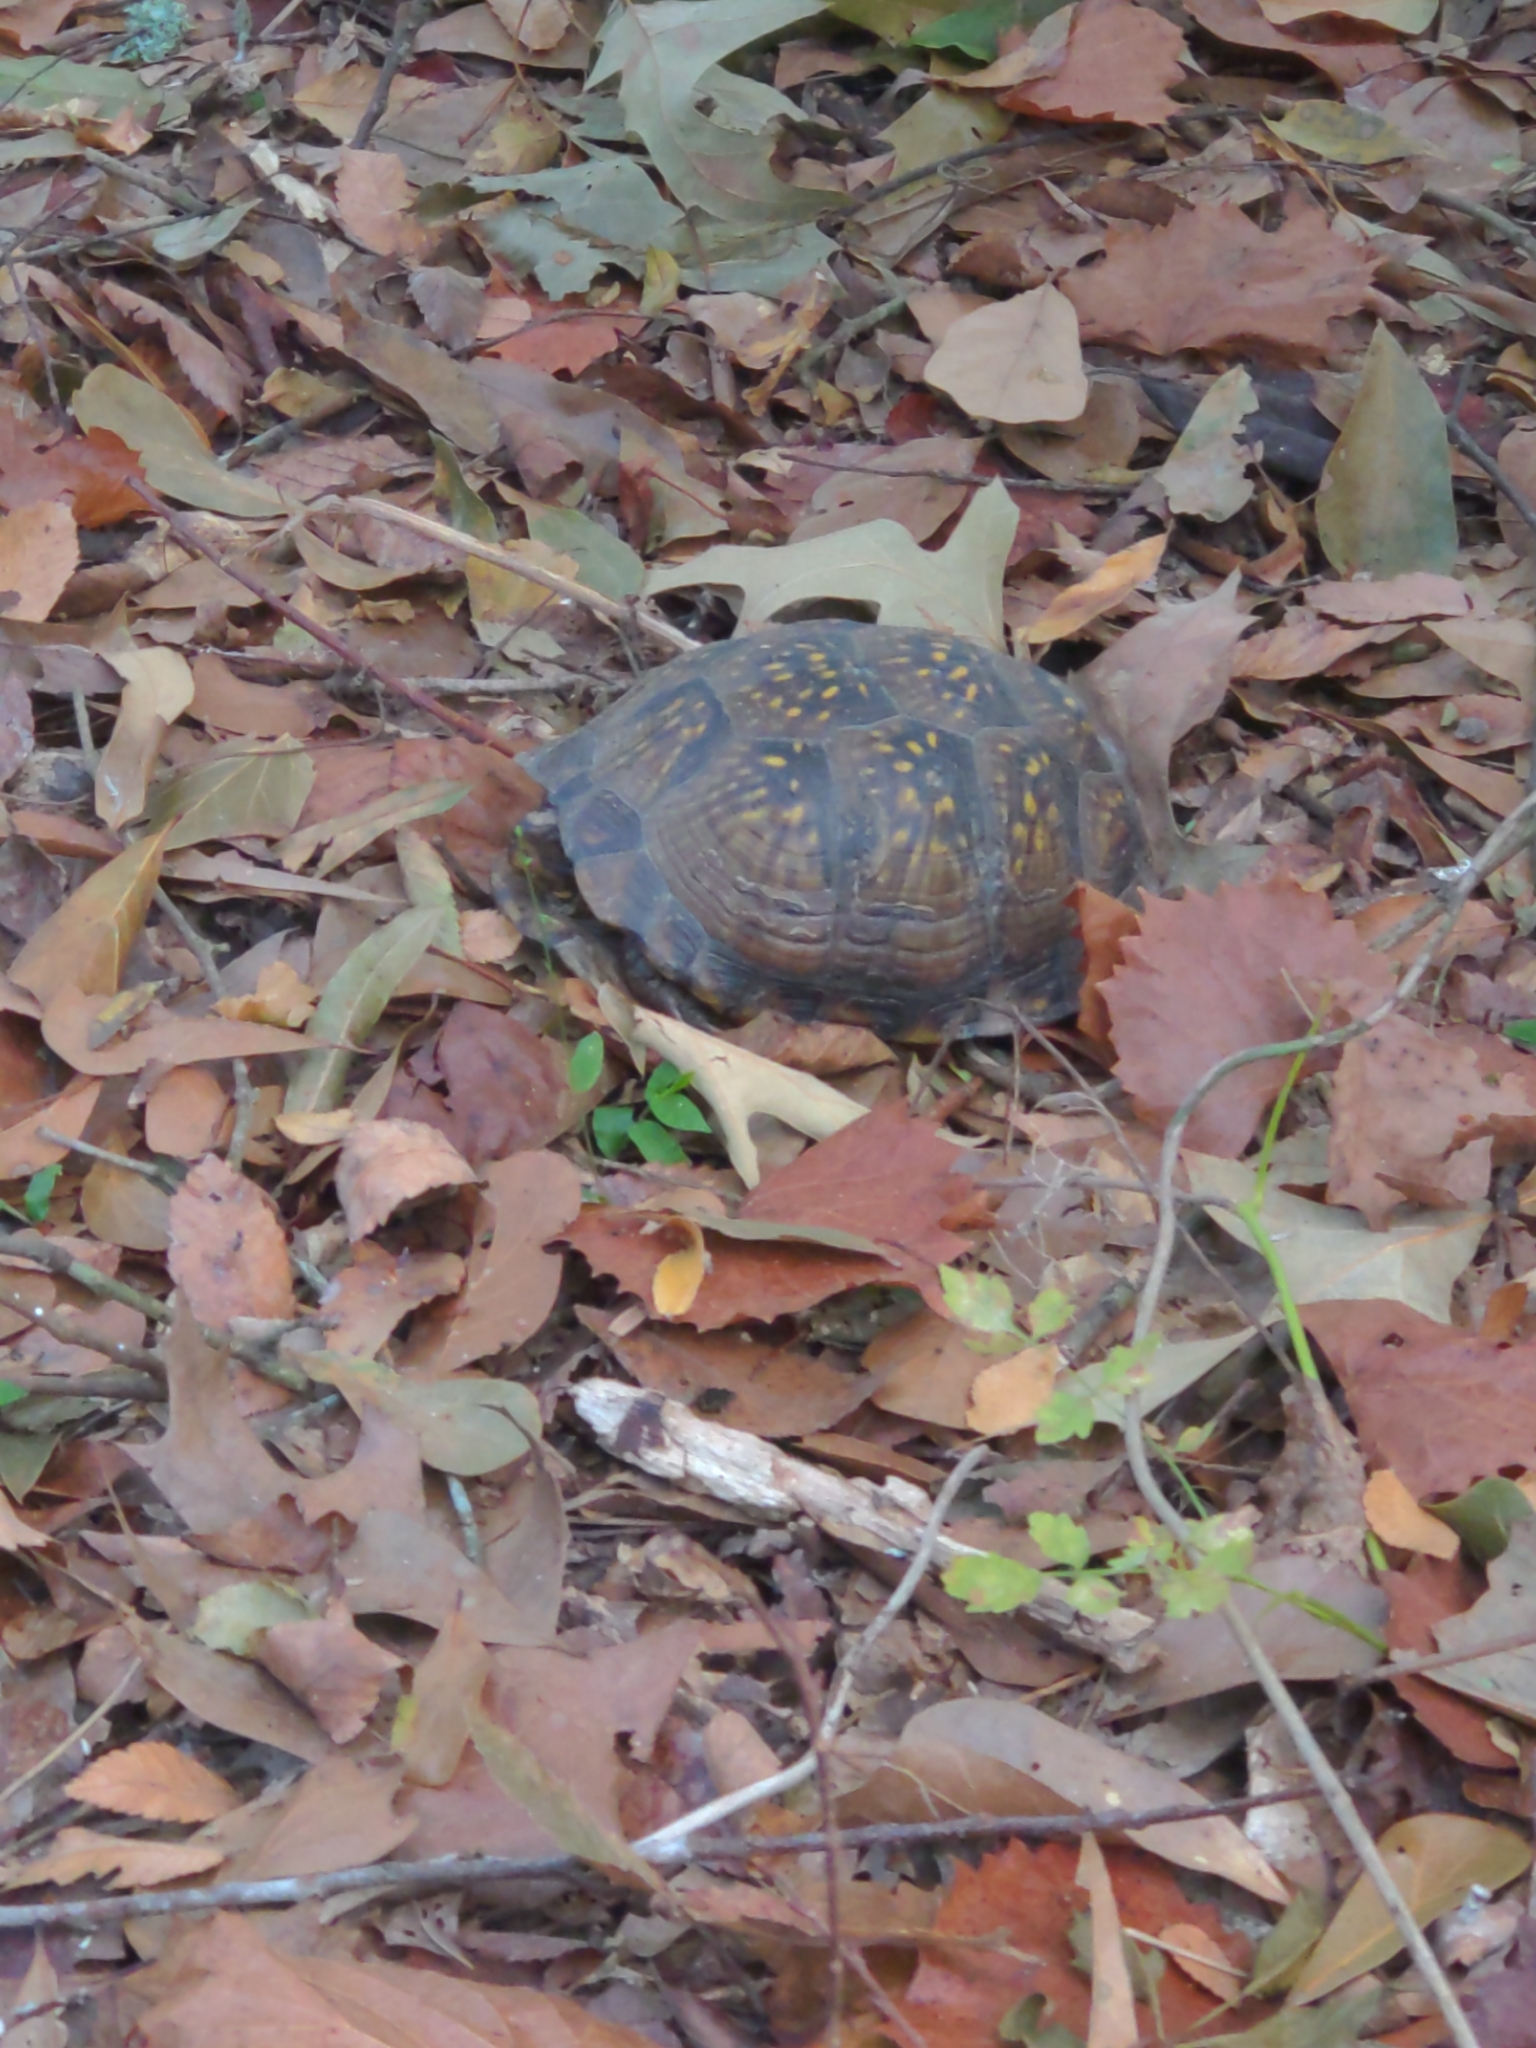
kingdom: Animalia
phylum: Chordata
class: Testudines
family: Emydidae
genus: Terrapene
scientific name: Terrapene carolina
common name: Common box turtle
